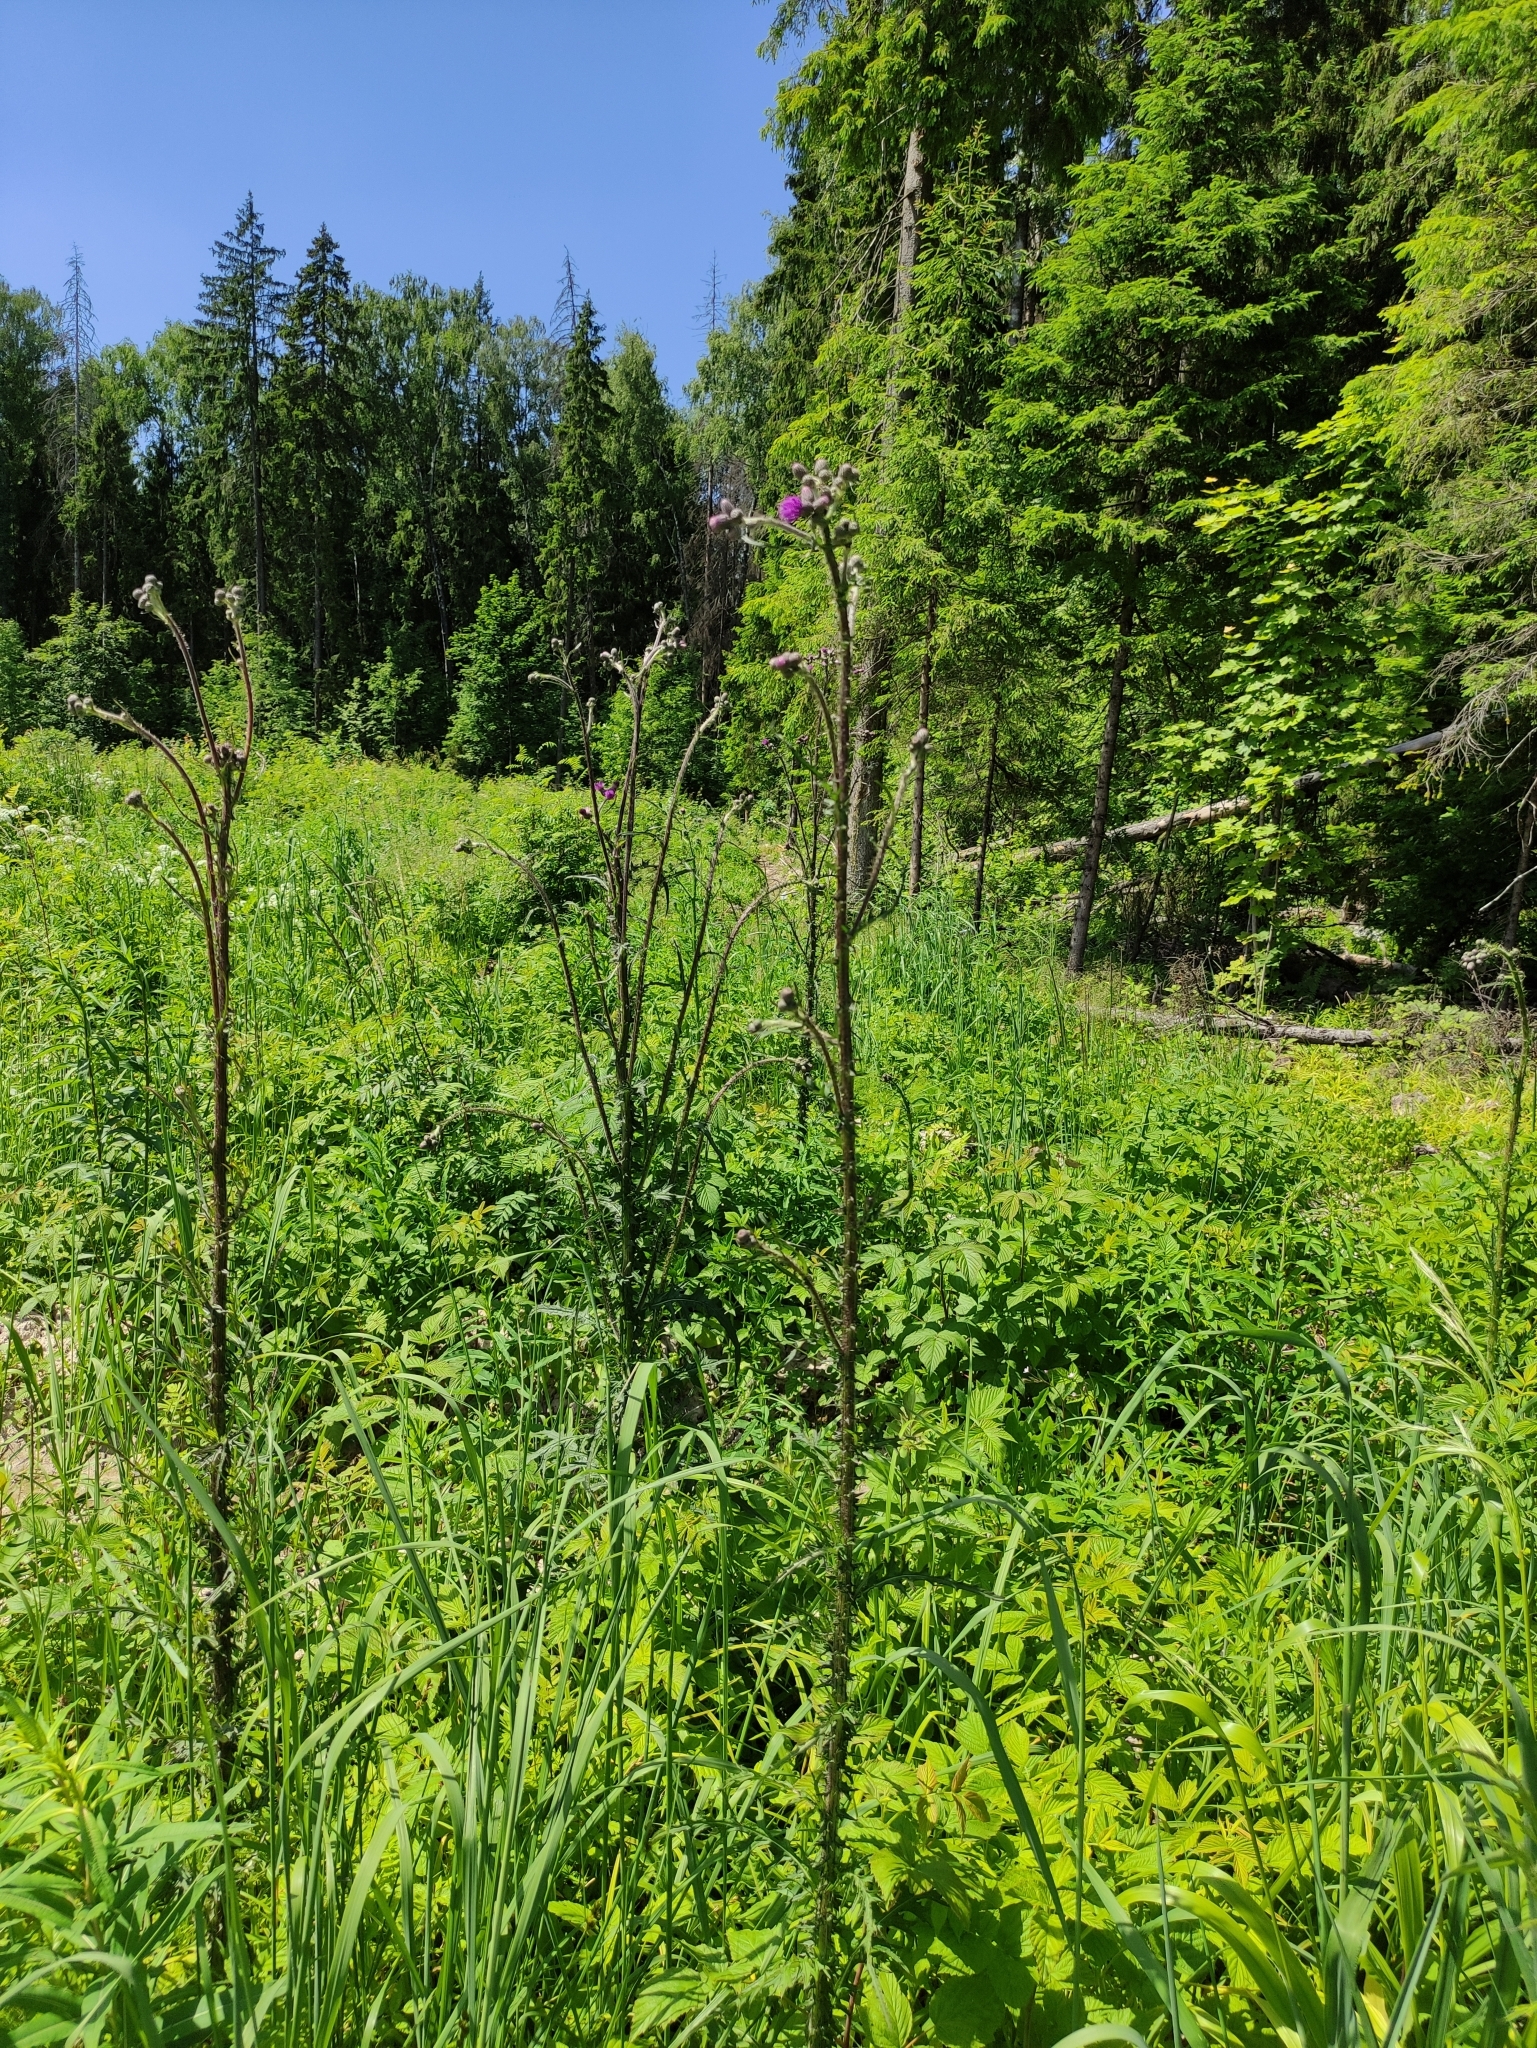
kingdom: Plantae
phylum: Tracheophyta
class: Magnoliopsida
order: Asterales
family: Asteraceae
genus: Cirsium
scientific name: Cirsium palustre
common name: Marsh thistle
